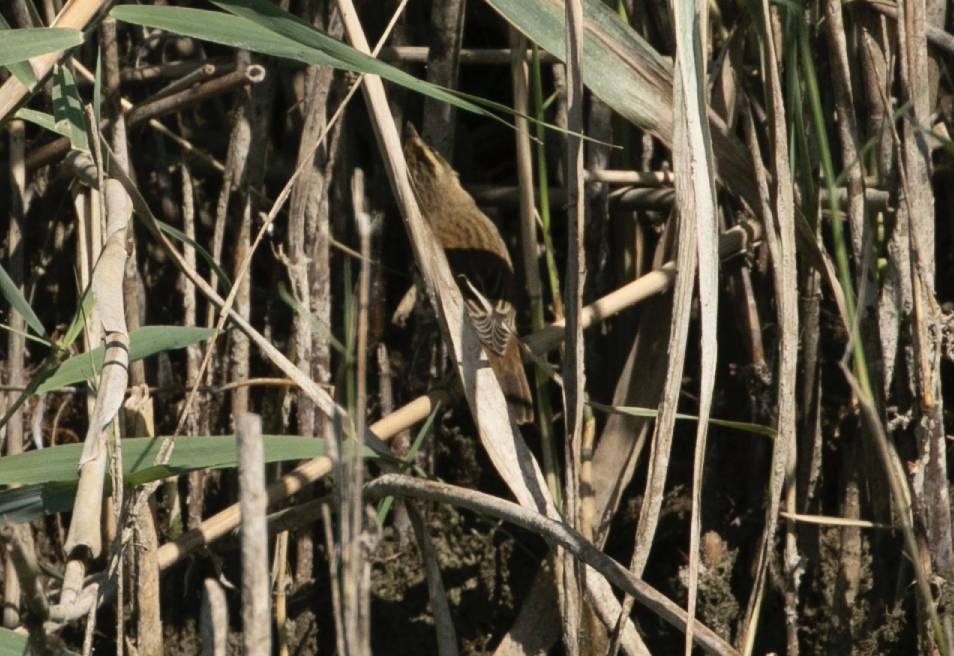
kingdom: Animalia
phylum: Chordata
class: Aves
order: Passeriformes
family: Acrocephalidae
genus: Acrocephalus
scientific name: Acrocephalus schoenobaenus
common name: Sedge warbler
